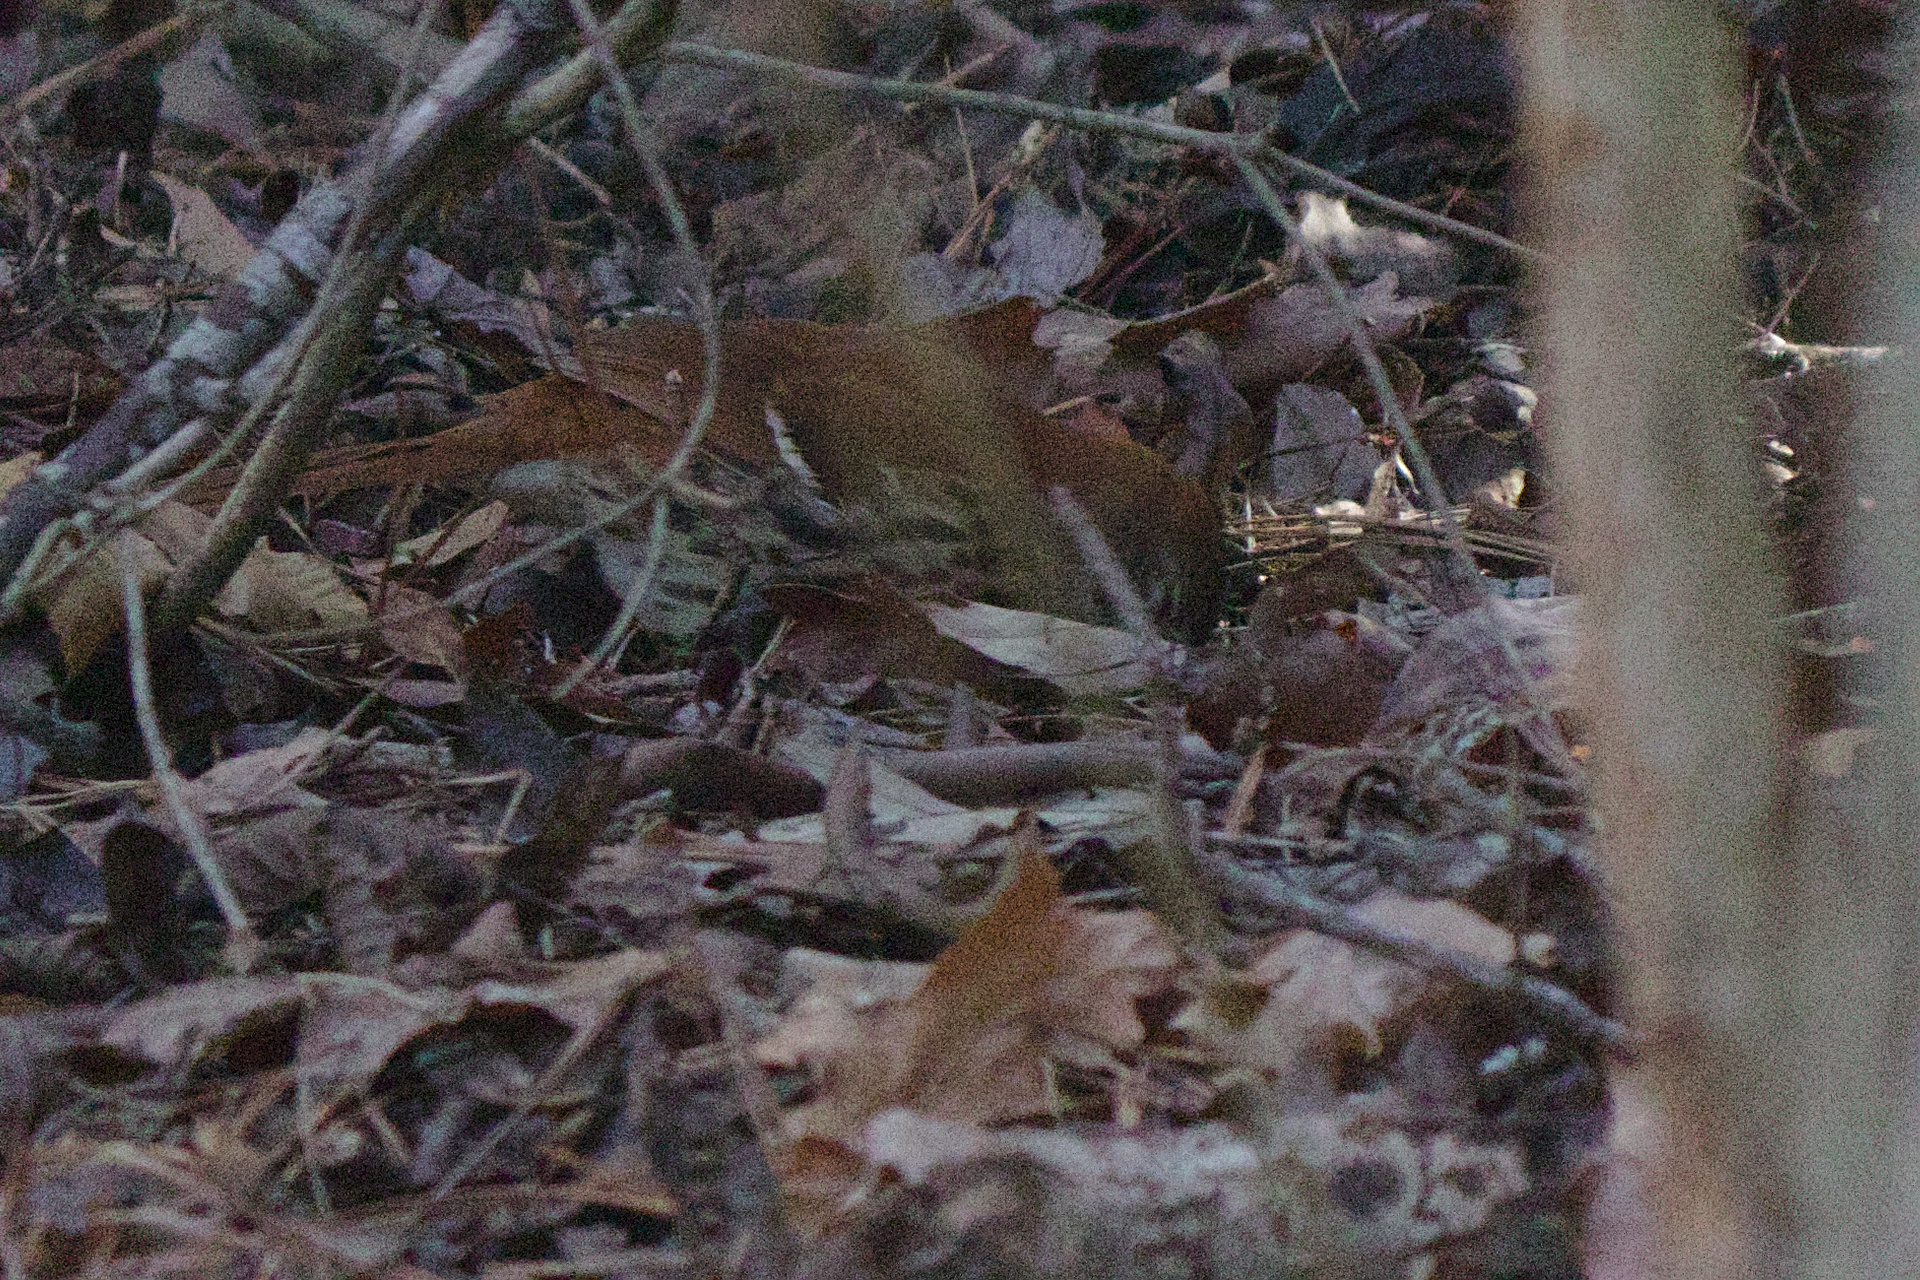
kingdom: Animalia
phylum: Chordata
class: Aves
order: Passeriformes
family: Mimidae
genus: Toxostoma
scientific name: Toxostoma rufum
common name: Brown thrasher
